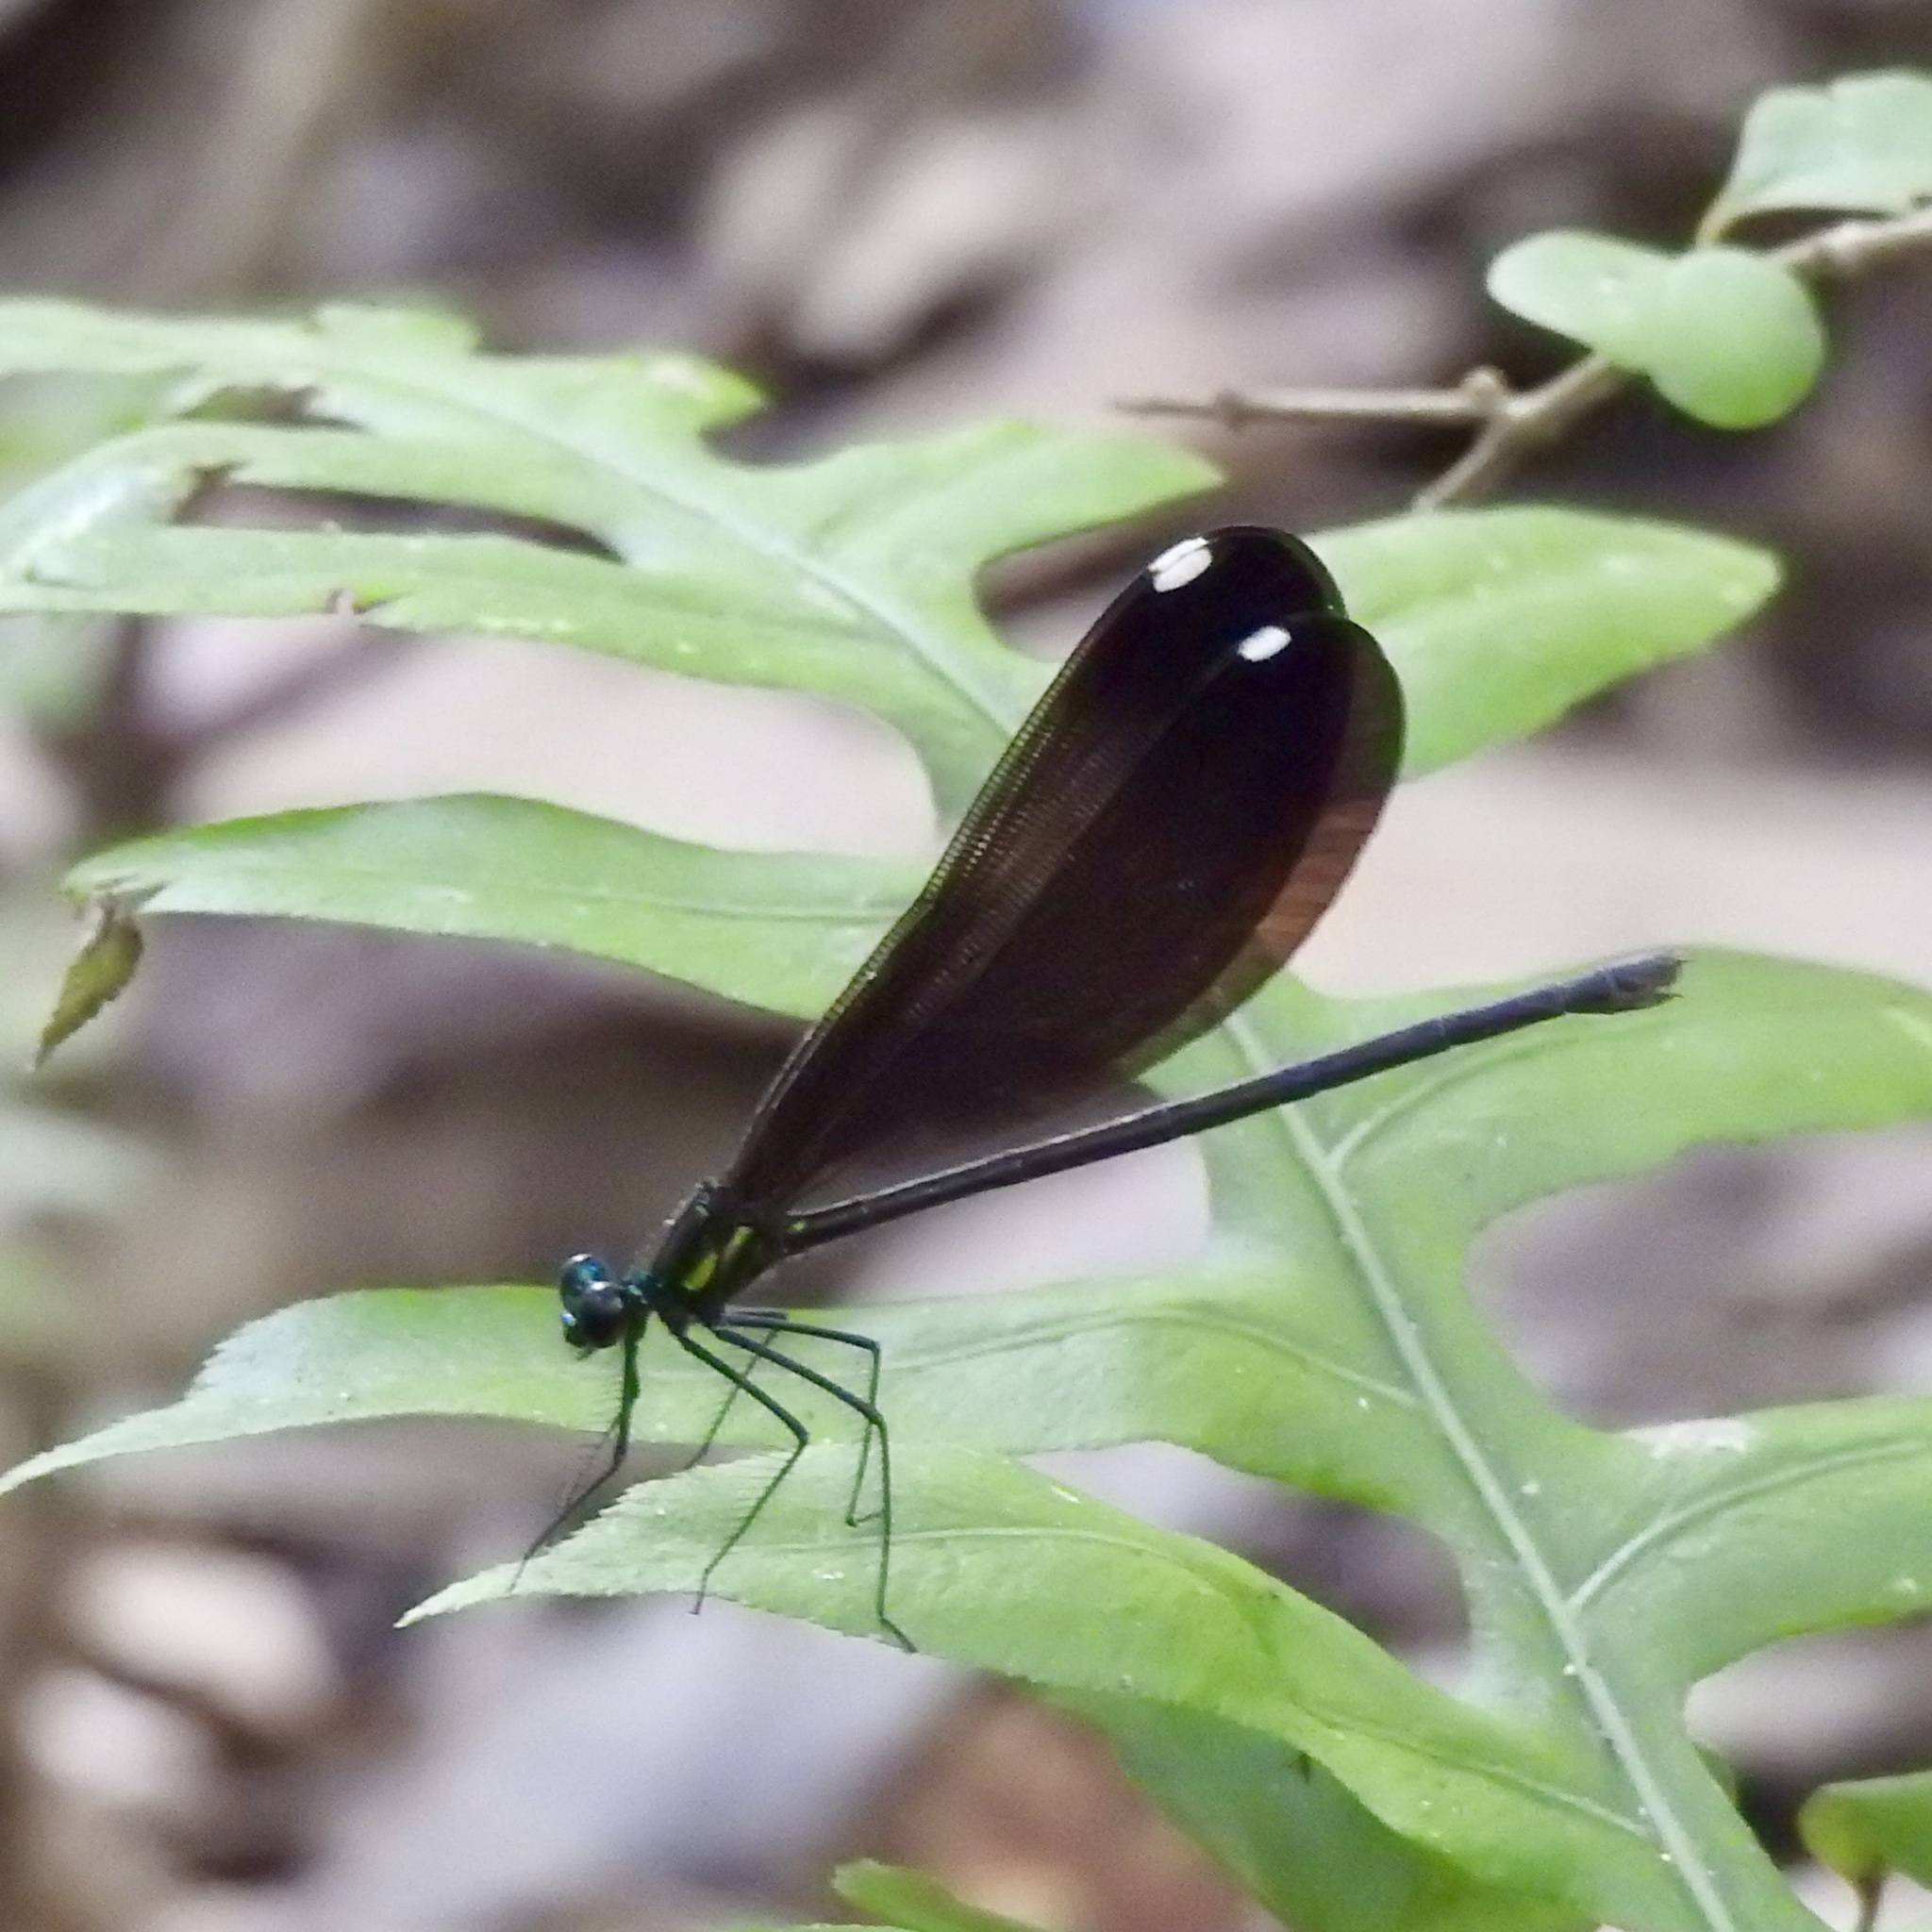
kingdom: Animalia
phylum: Arthropoda
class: Insecta
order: Odonata
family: Calopterygidae
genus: Calopteryx
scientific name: Calopteryx maculata
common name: Ebony jewelwing
